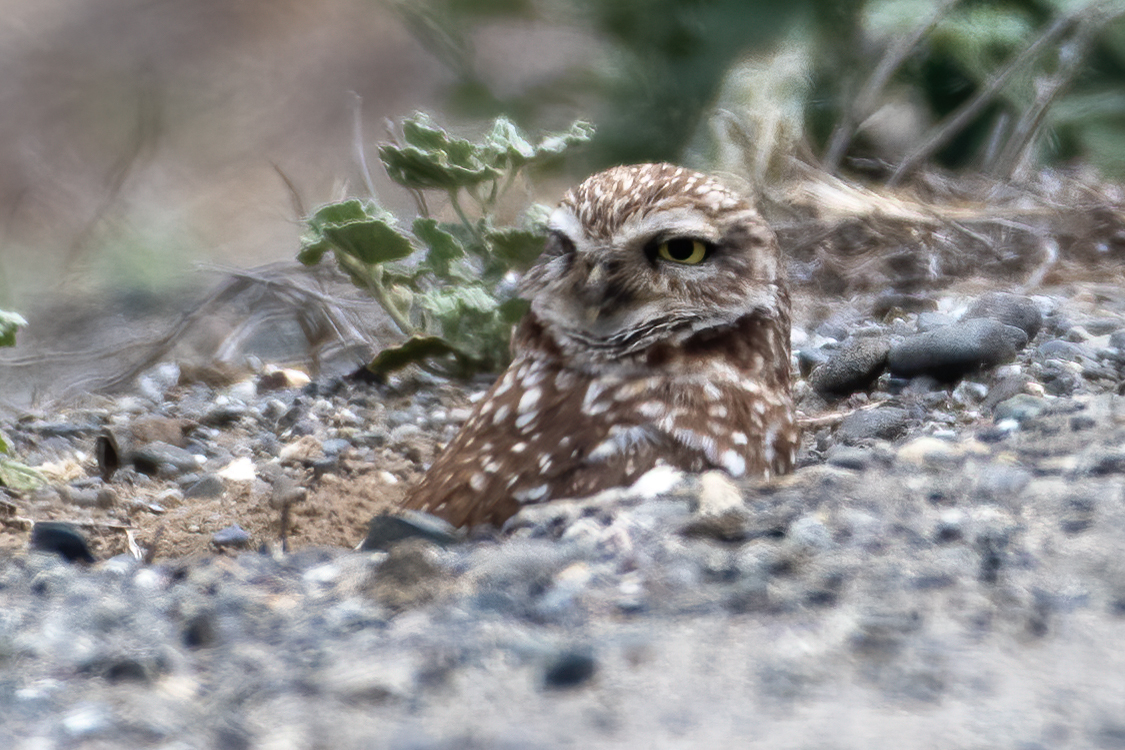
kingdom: Animalia
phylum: Chordata
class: Aves
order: Strigiformes
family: Strigidae
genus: Athene
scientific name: Athene cunicularia
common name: Burrowing owl
